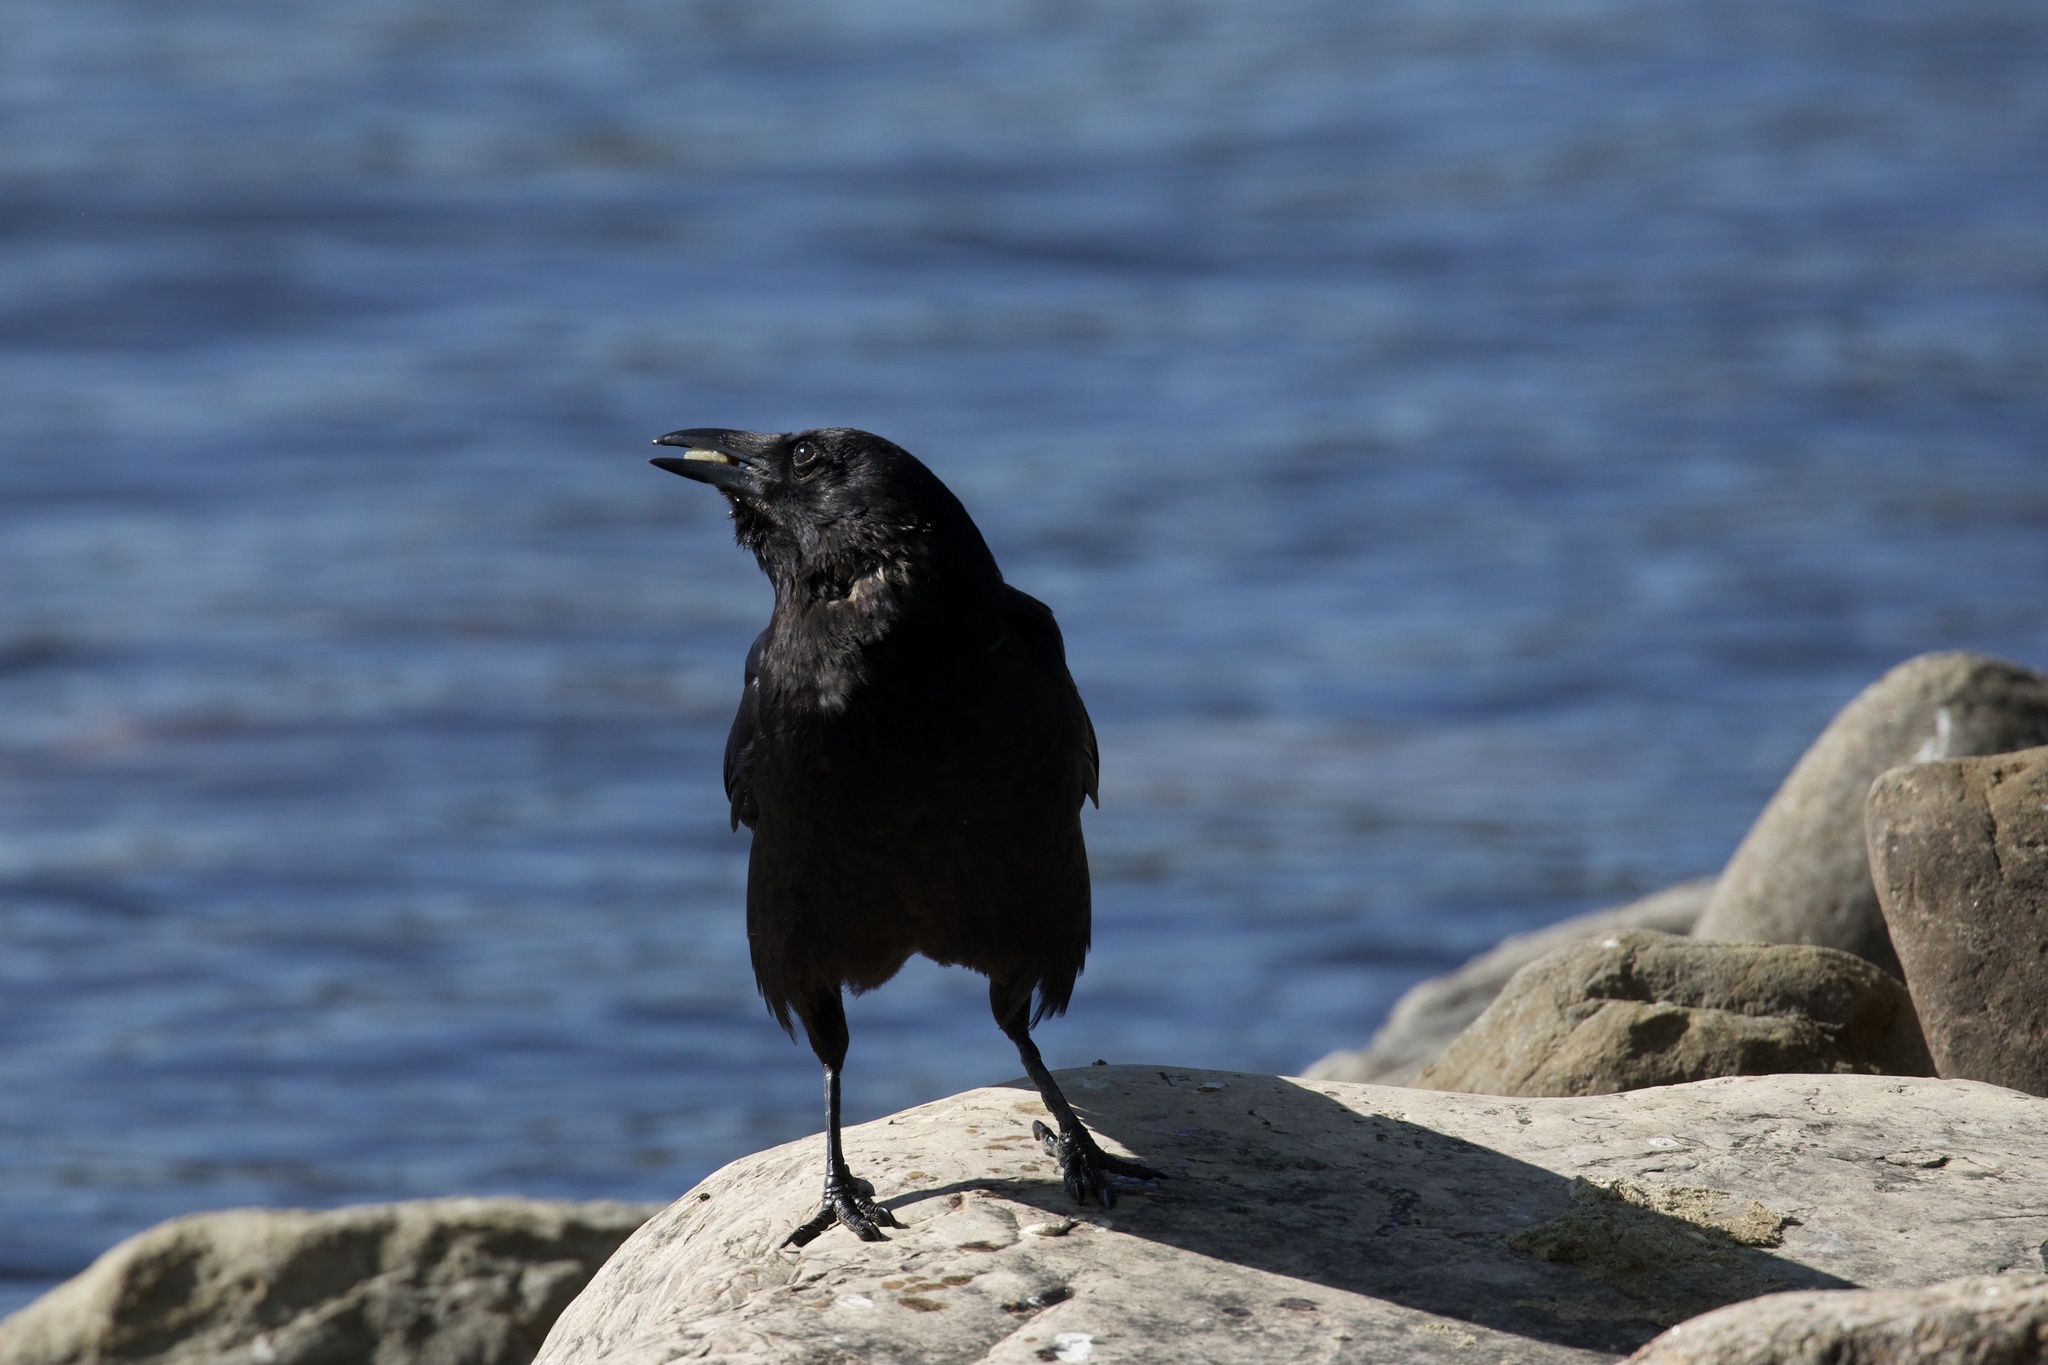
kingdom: Animalia
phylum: Chordata
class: Aves
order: Passeriformes
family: Corvidae
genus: Corvus
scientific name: Corvus brachyrhynchos
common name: American crow
